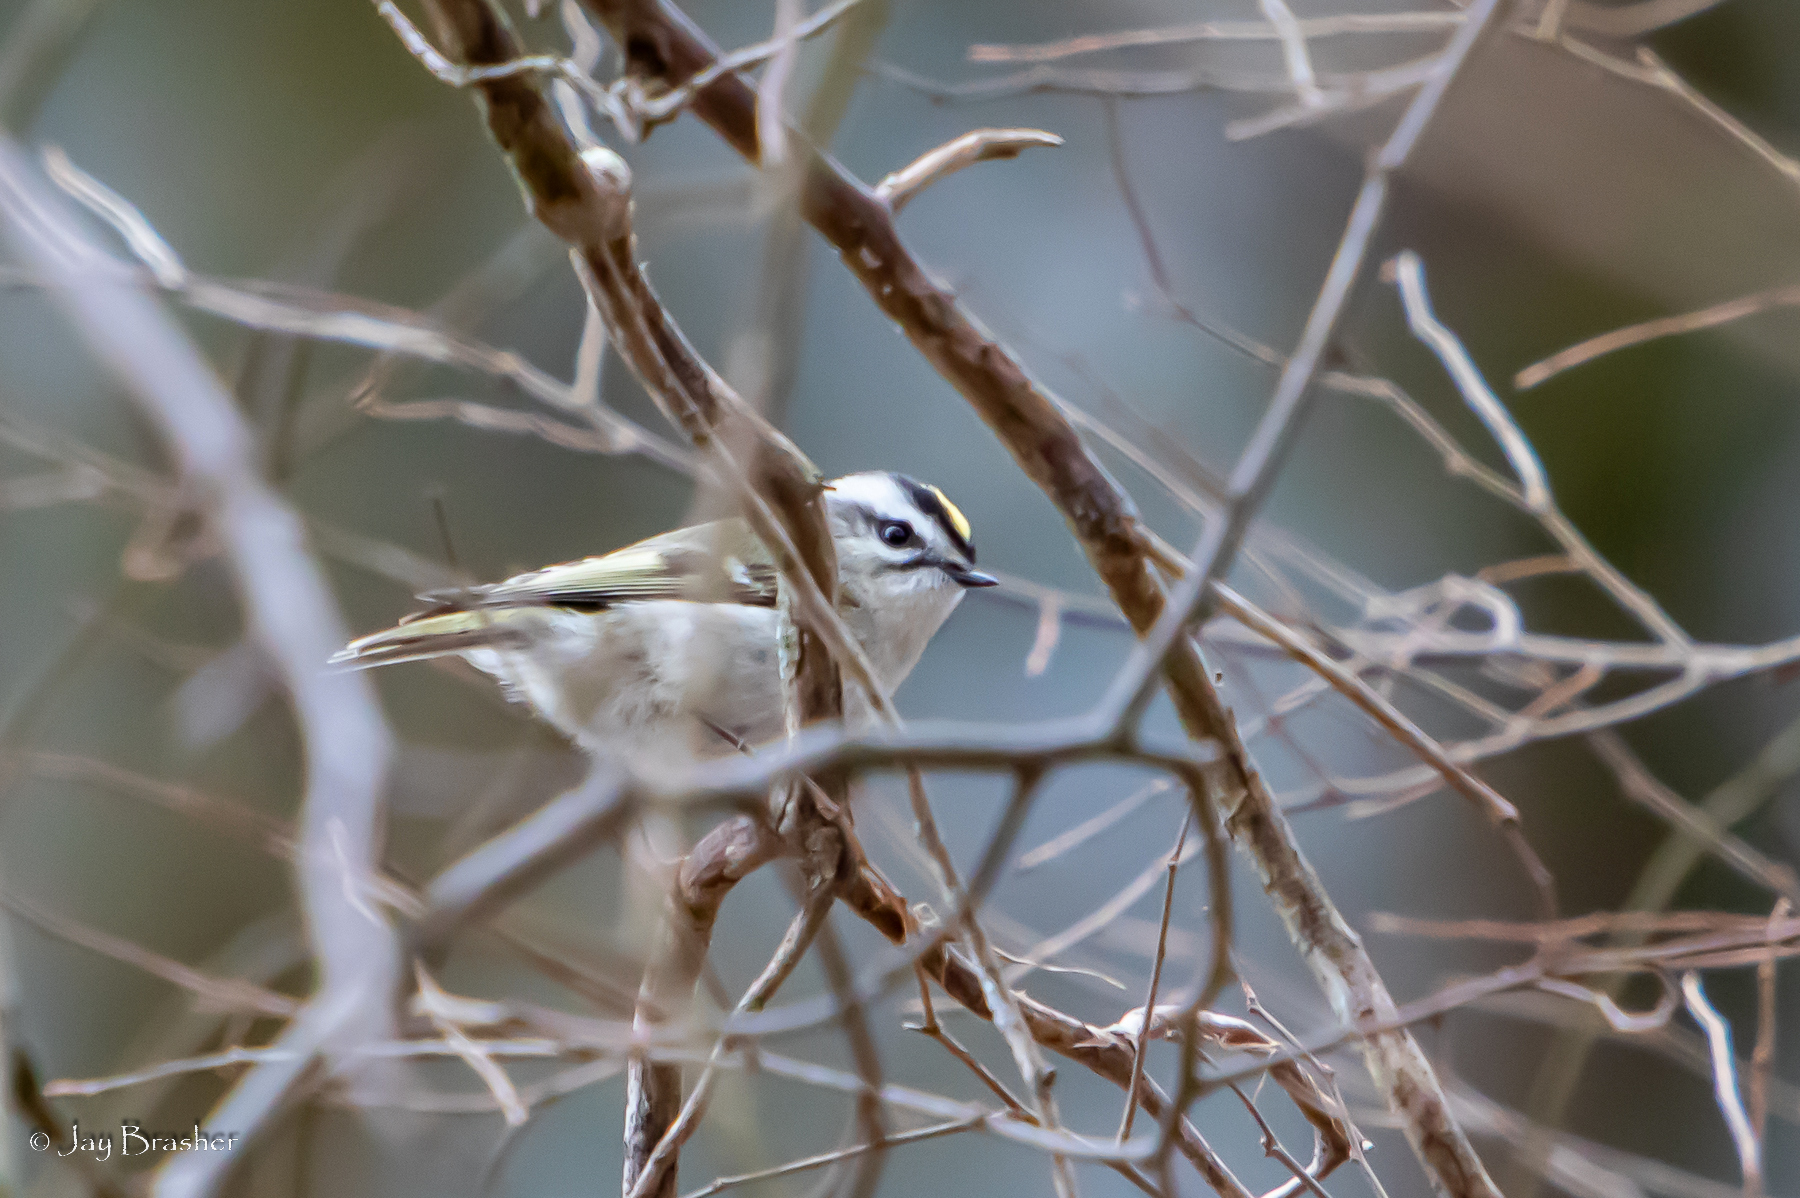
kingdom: Animalia
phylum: Chordata
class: Aves
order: Passeriformes
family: Regulidae
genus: Regulus
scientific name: Regulus satrapa
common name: Golden-crowned kinglet
